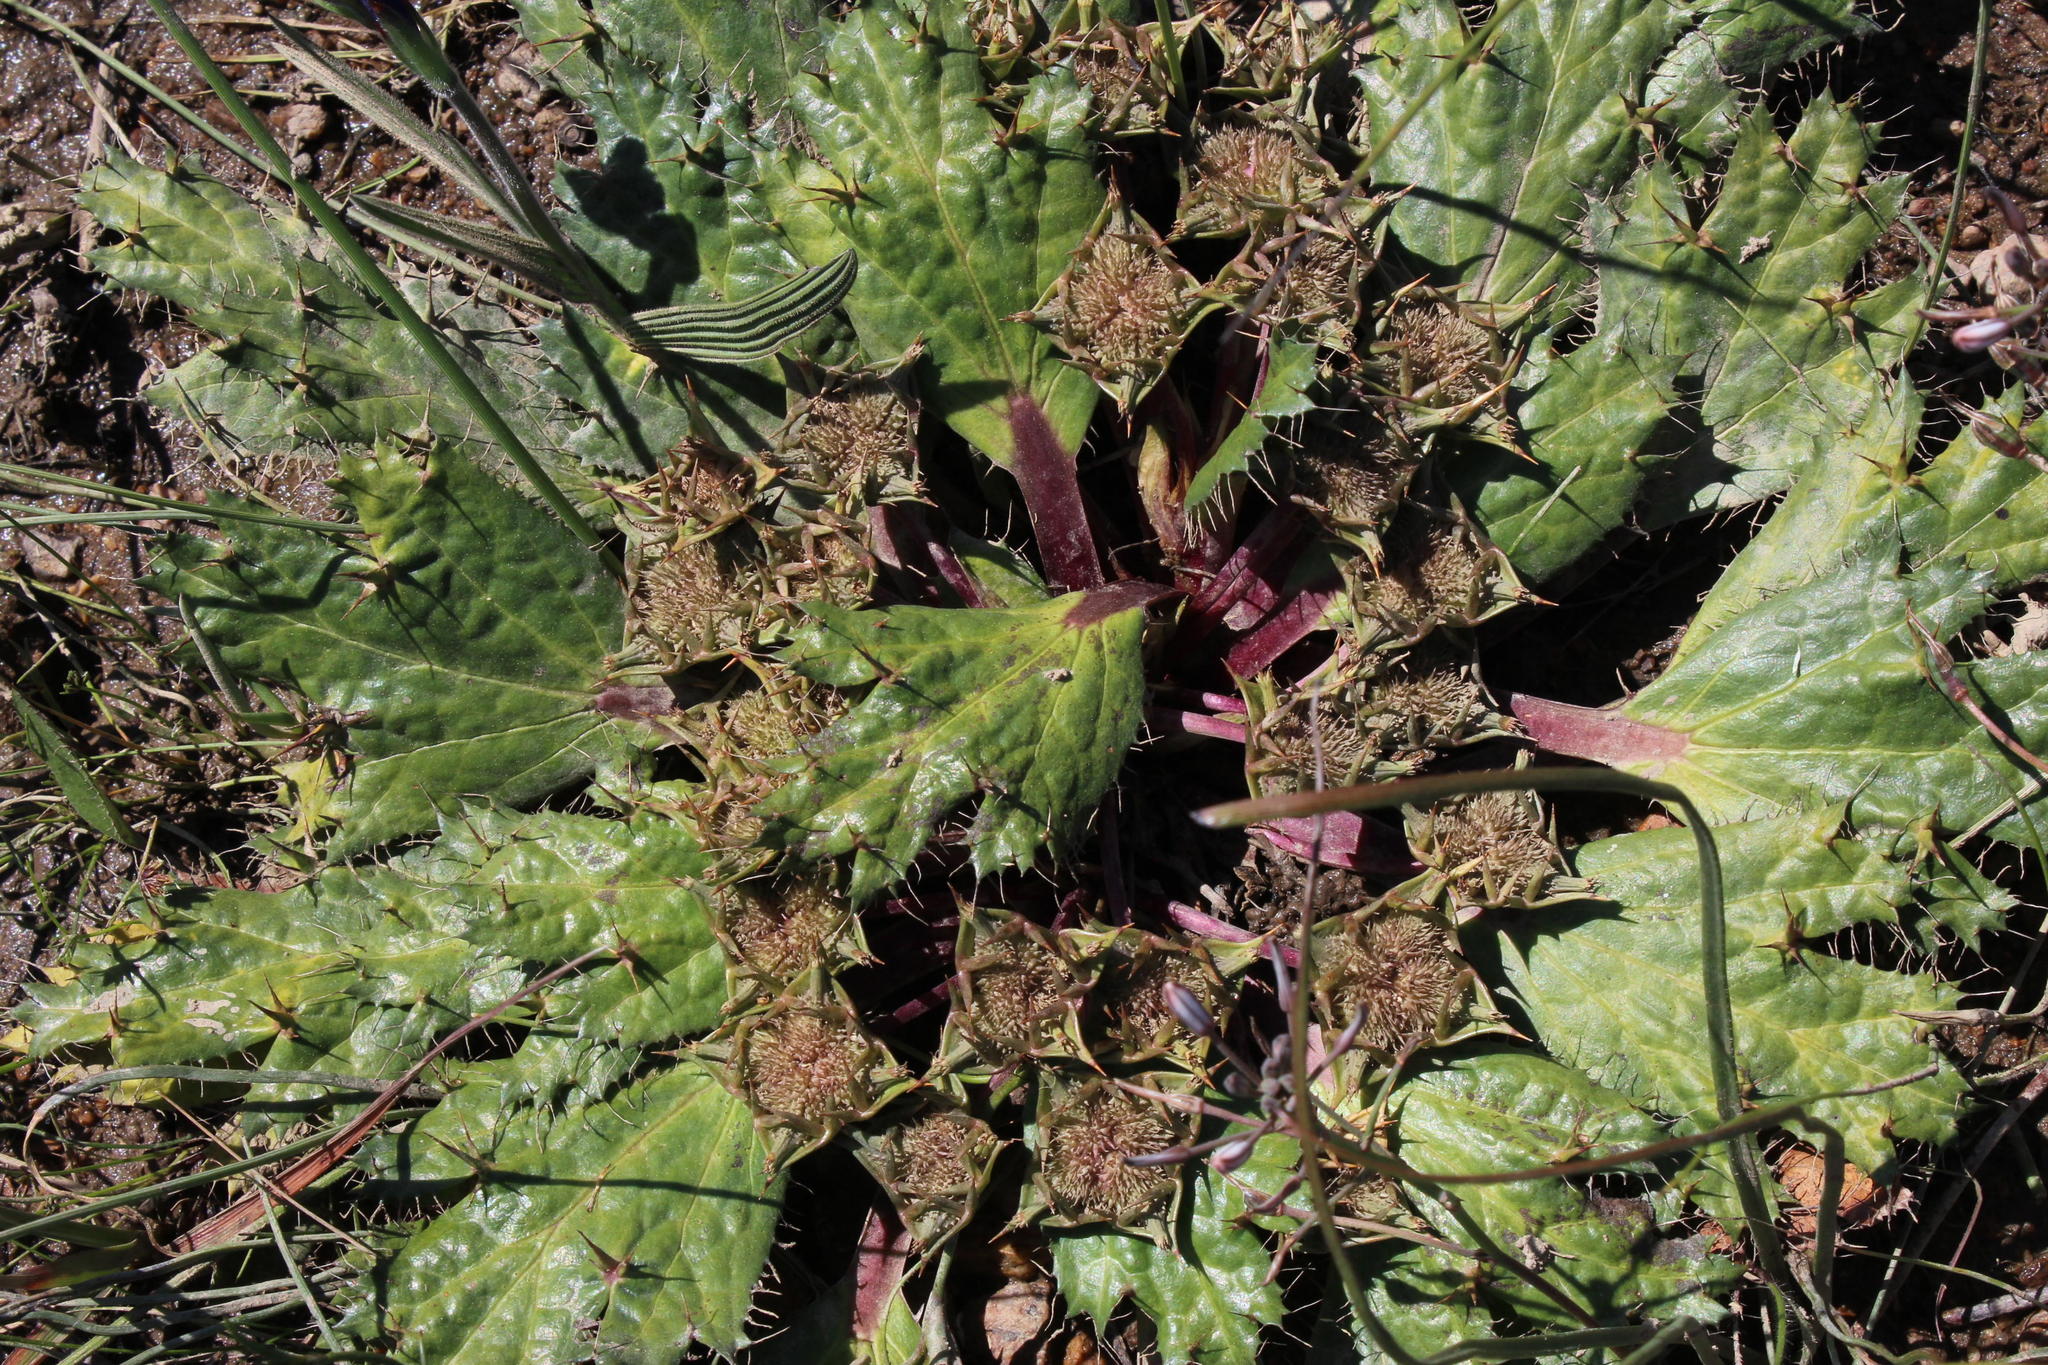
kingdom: Plantae
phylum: Tracheophyta
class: Magnoliopsida
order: Apiales
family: Apiaceae
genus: Arctopus
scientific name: Arctopus echinatus
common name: Platdoring
